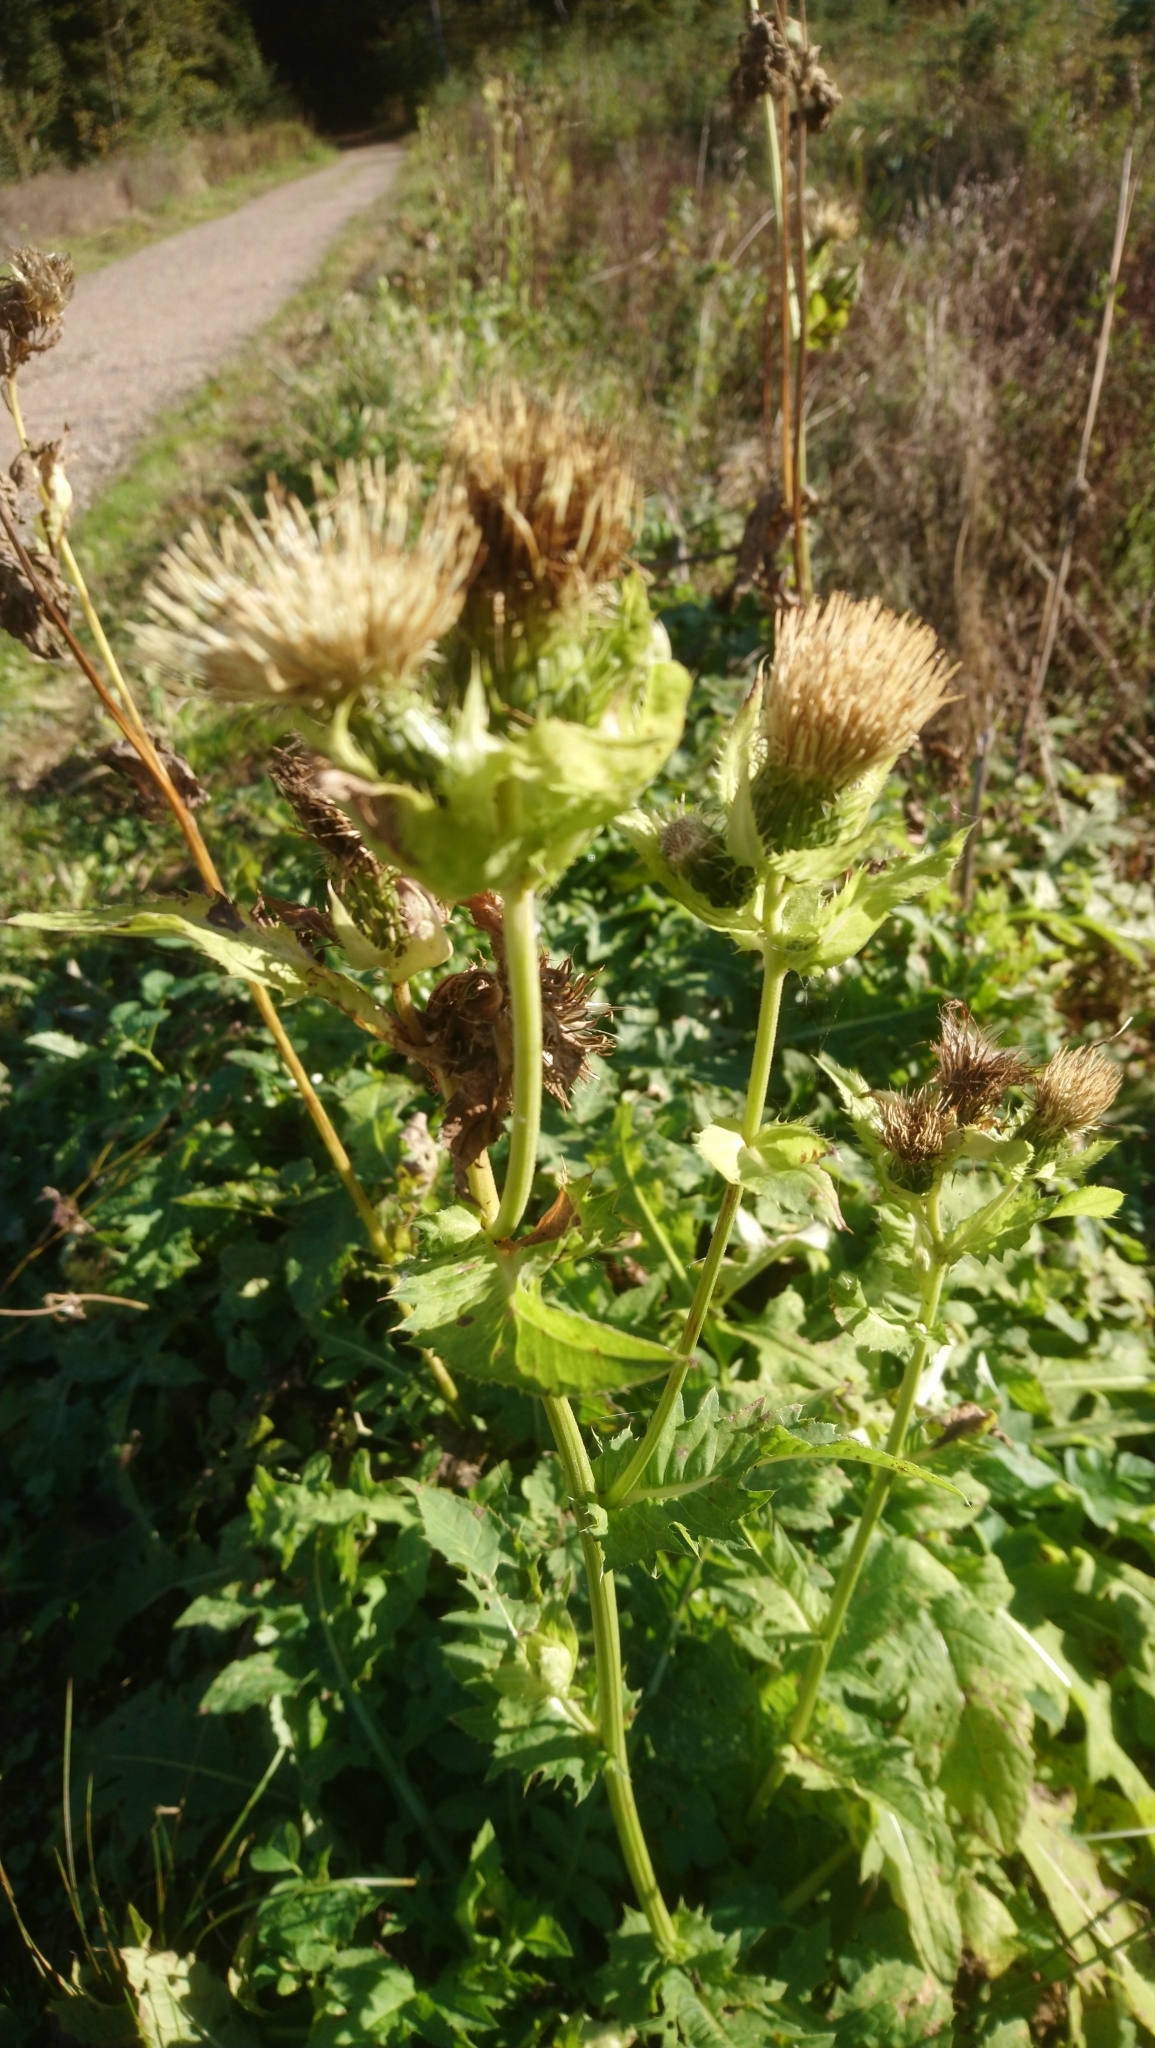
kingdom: Plantae
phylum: Tracheophyta
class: Magnoliopsida
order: Asterales
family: Asteraceae
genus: Cirsium
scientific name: Cirsium oleraceum
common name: Cabbage thistle
